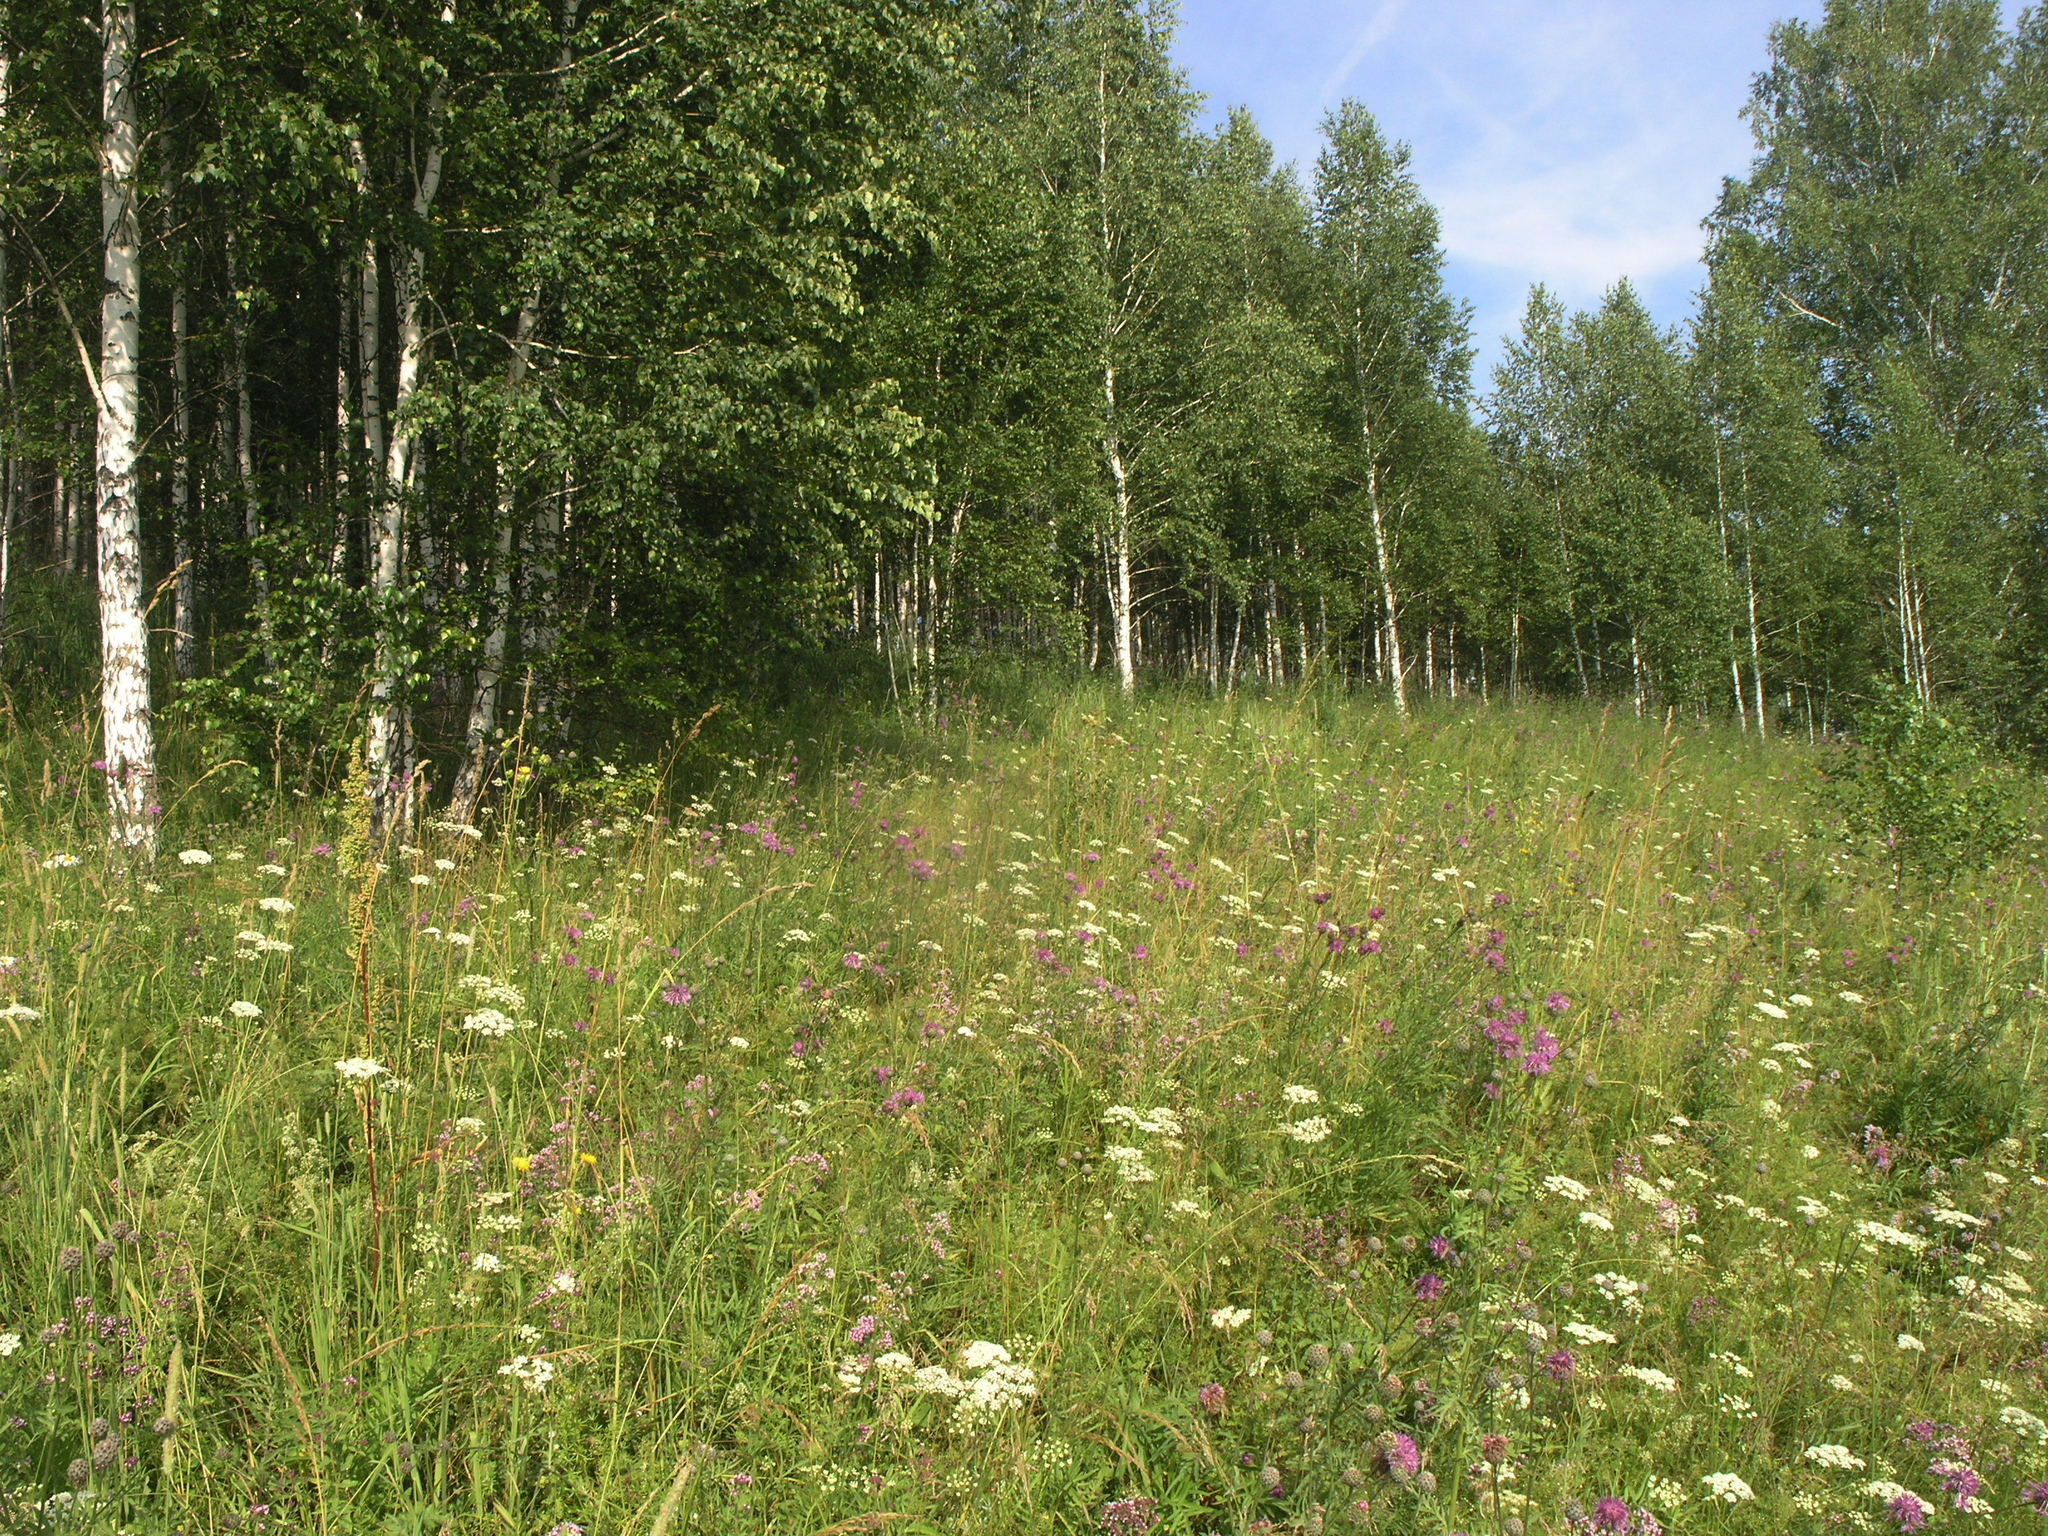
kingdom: Plantae
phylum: Tracheophyta
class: Magnoliopsida
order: Apiales
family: Apiaceae
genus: Pimpinella
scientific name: Pimpinella saxifraga
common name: Burnet-saxifrage
